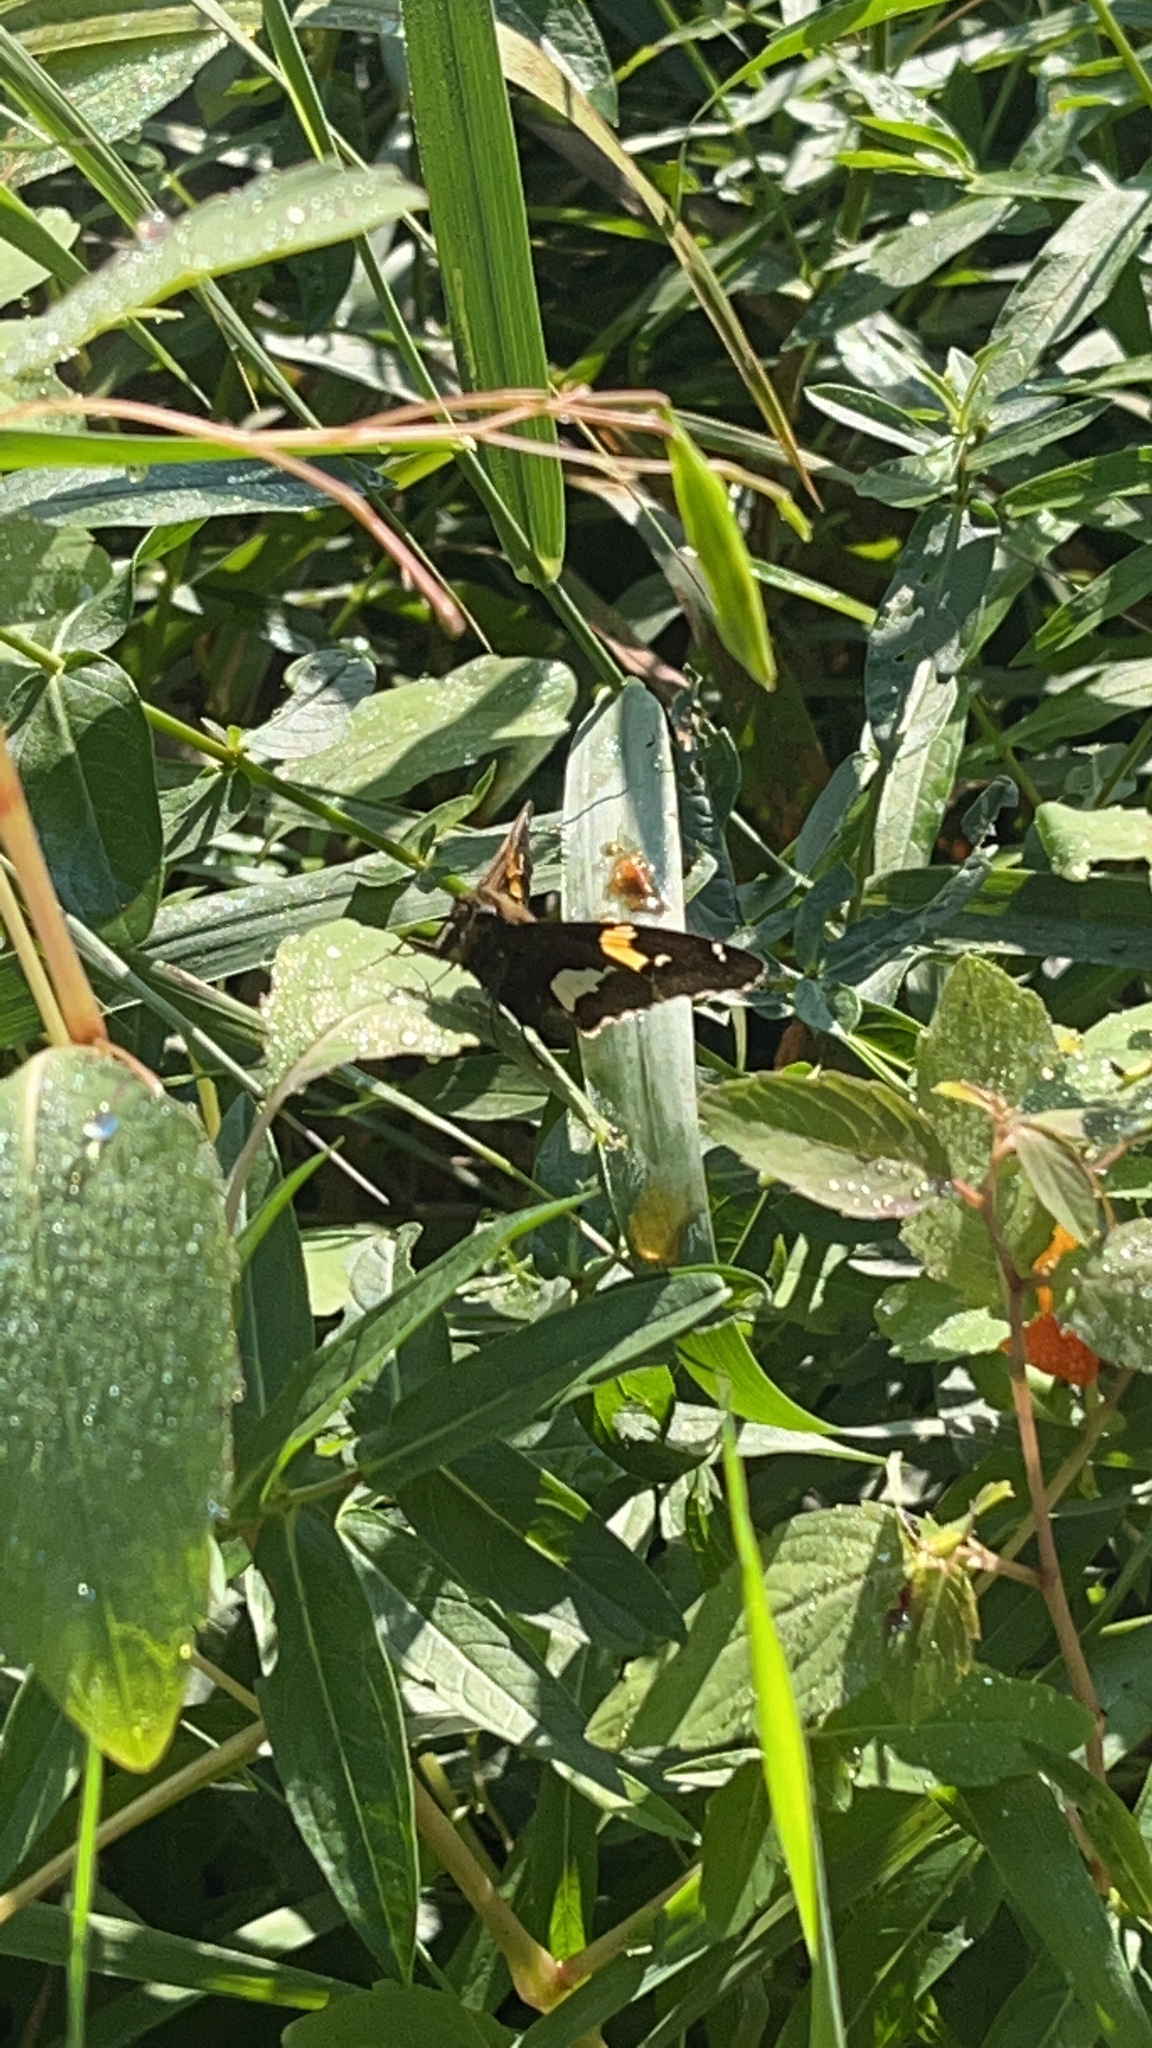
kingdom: Animalia
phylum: Arthropoda
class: Insecta
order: Lepidoptera
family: Hesperiidae
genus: Epargyreus
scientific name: Epargyreus clarus
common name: Silver-spotted skipper
